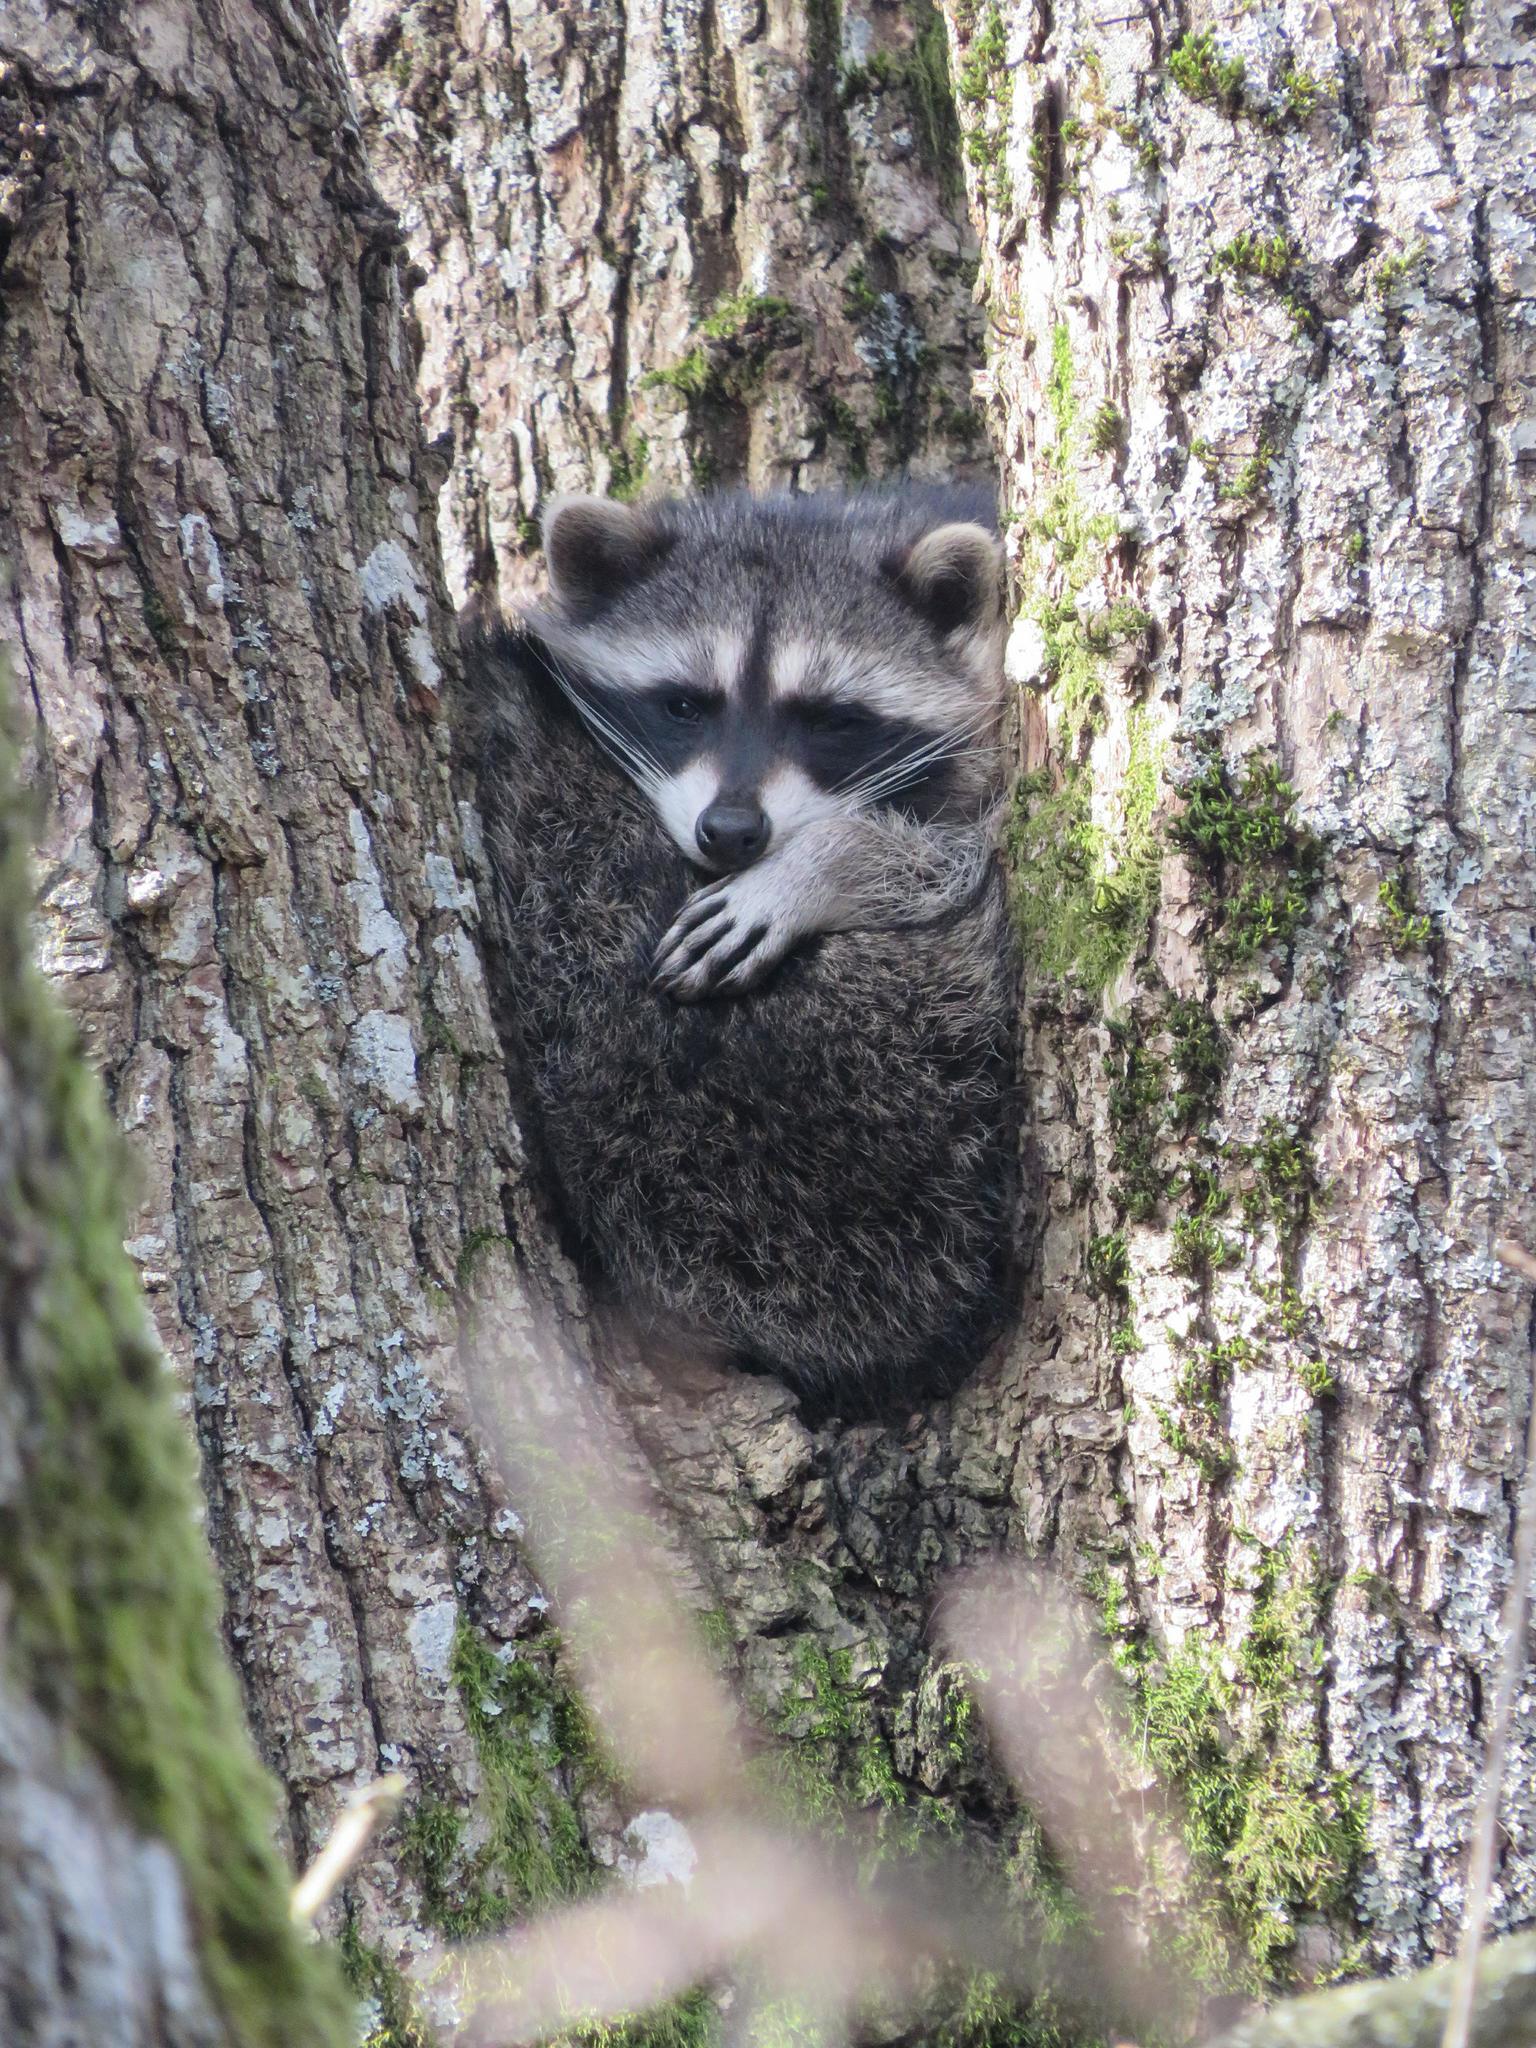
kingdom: Animalia
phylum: Chordata
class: Mammalia
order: Carnivora
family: Procyonidae
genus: Procyon
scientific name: Procyon lotor
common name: Raccoon
